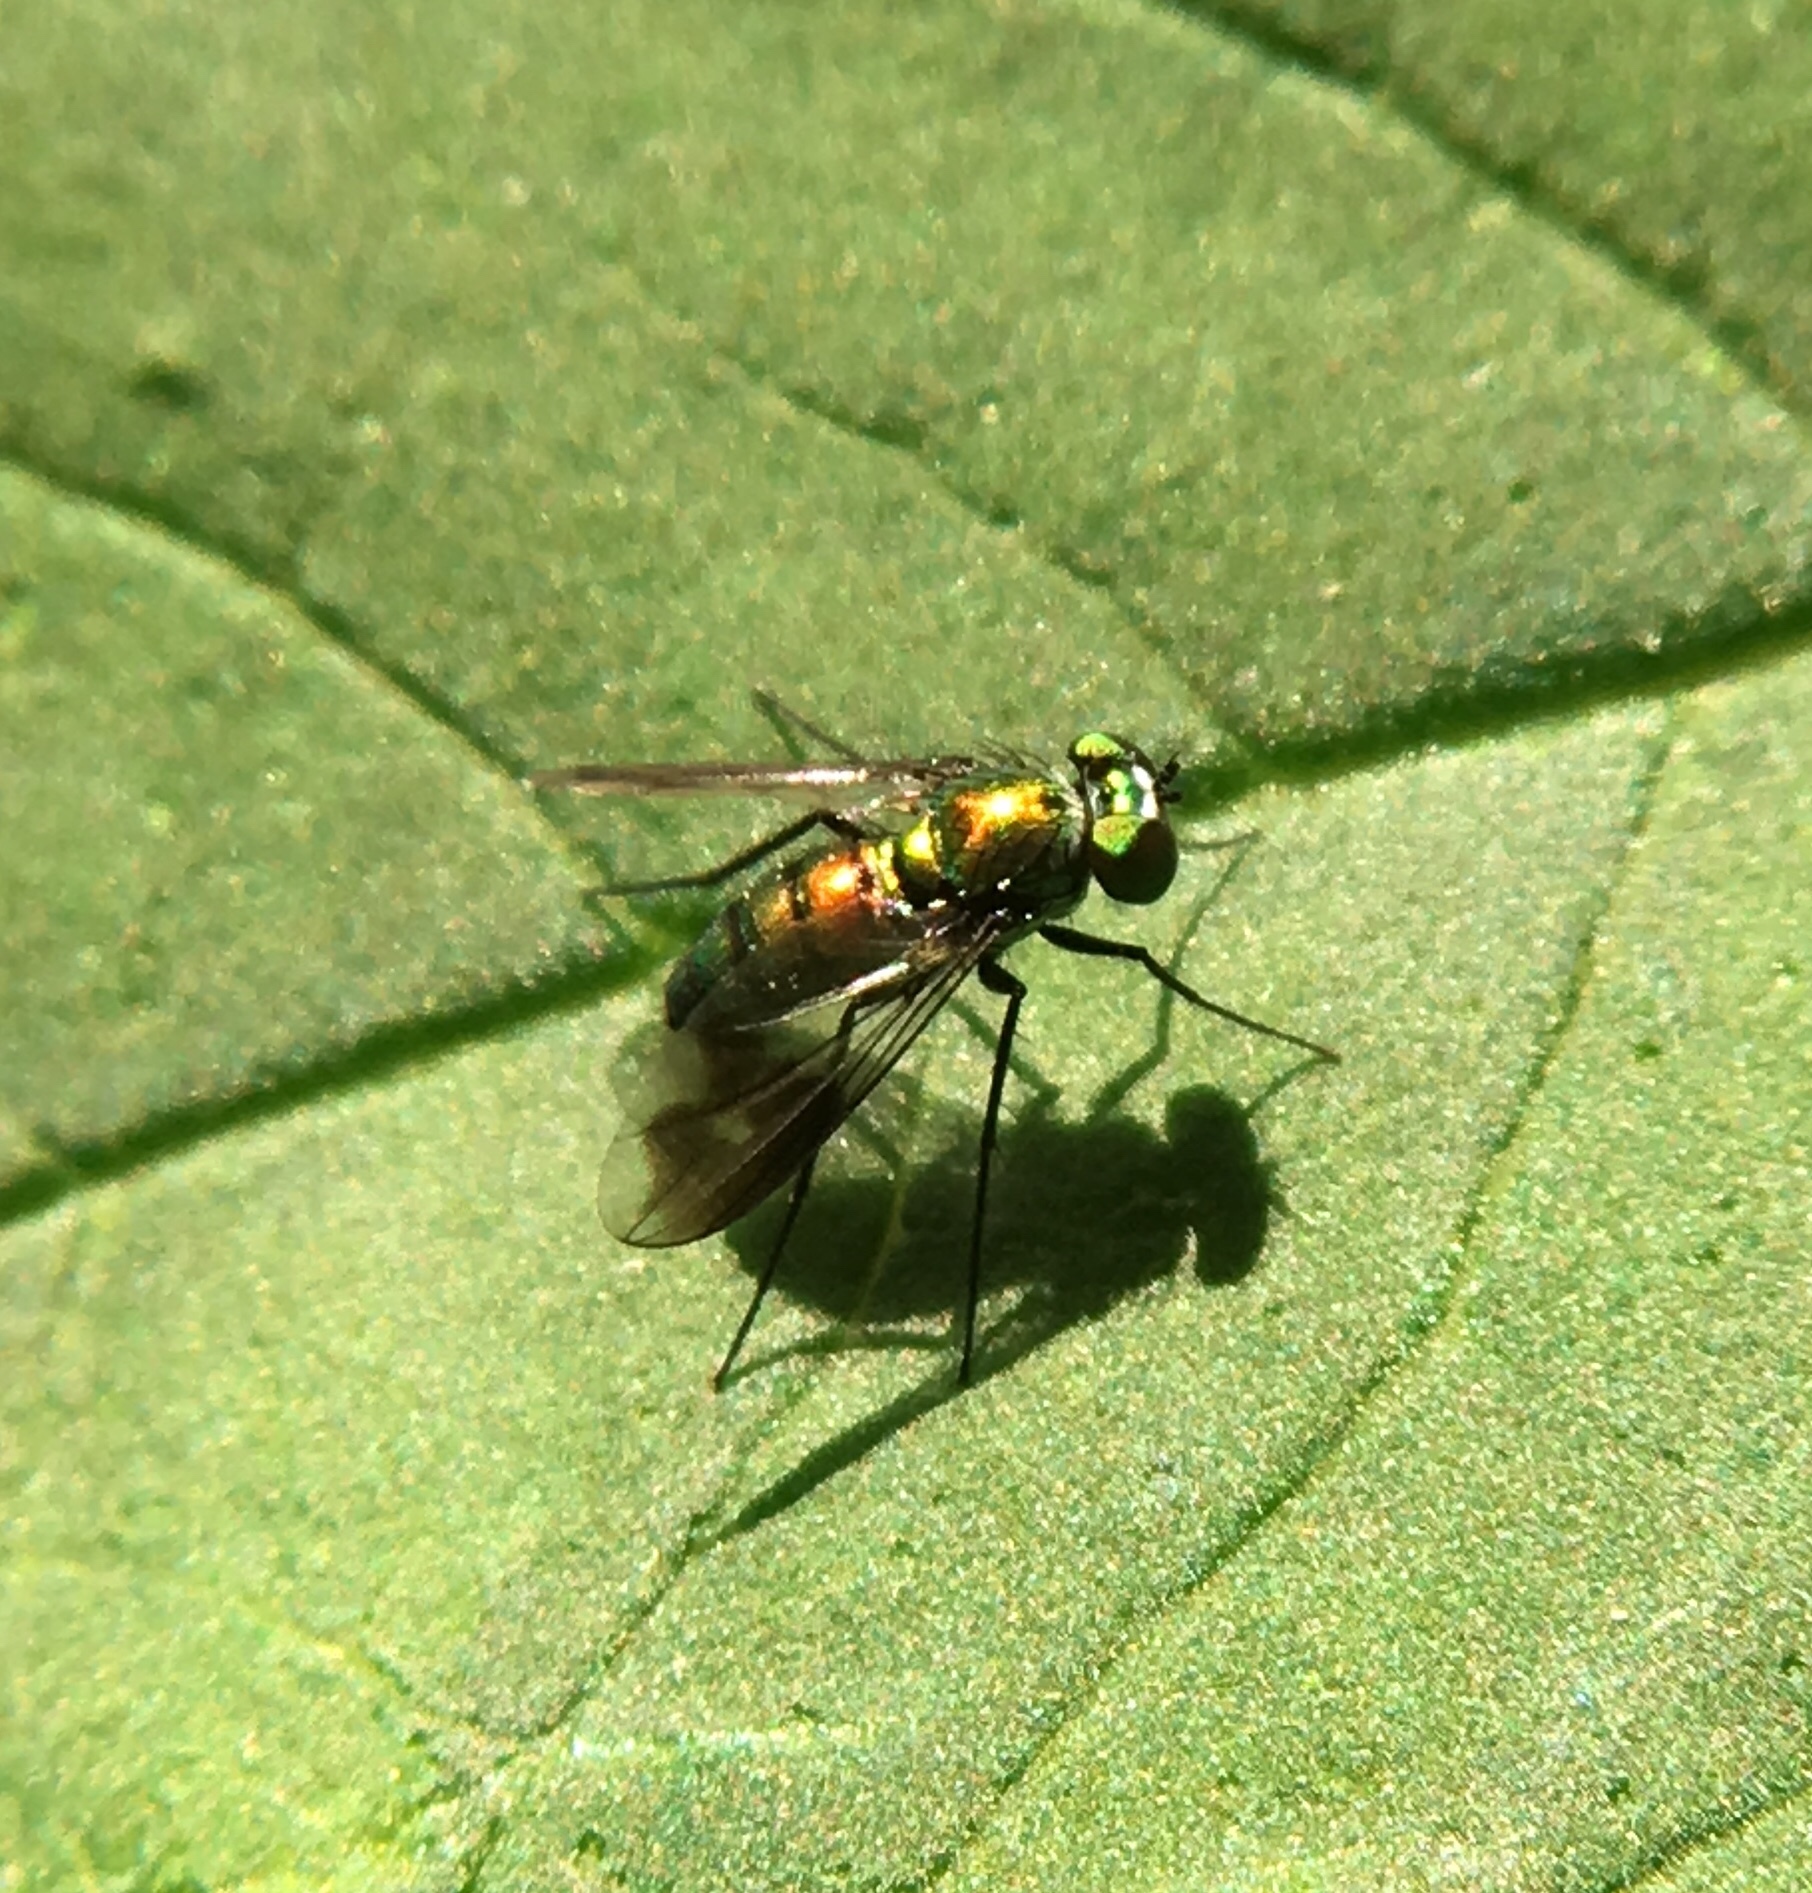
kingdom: Animalia
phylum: Arthropoda
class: Insecta
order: Diptera
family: Dolichopodidae
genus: Condylostylus
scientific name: Condylostylus patibulatus
